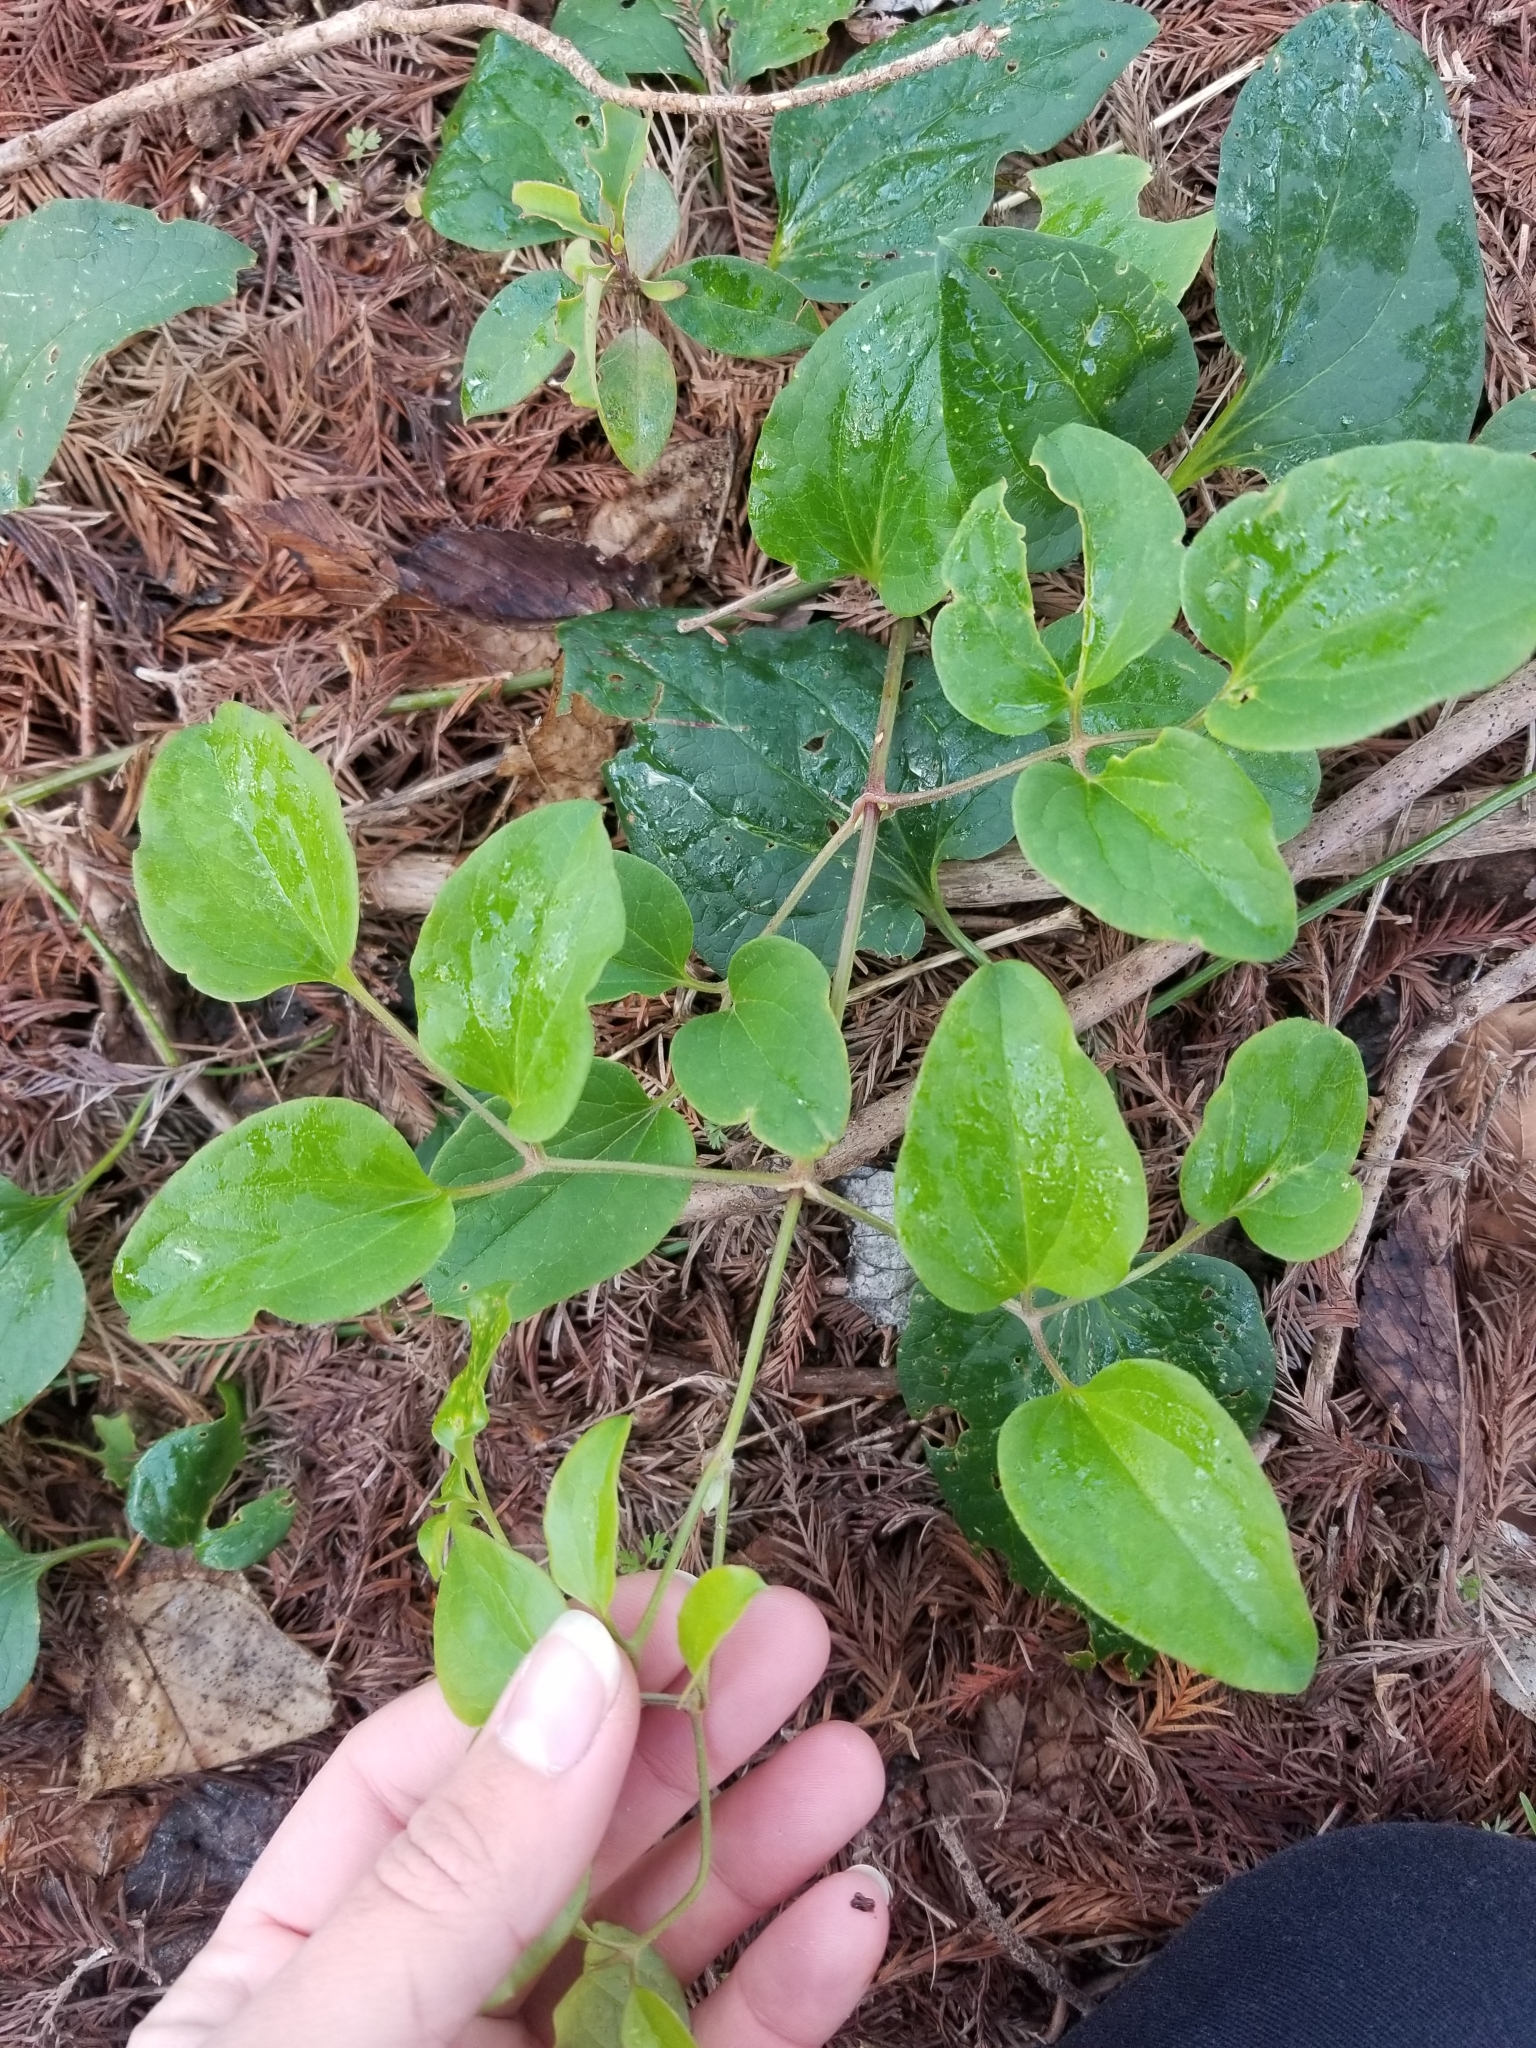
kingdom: Plantae
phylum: Tracheophyta
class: Magnoliopsida
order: Ranunculales
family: Ranunculaceae
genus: Clematis
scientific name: Clematis terniflora
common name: Sweet autumn clematis
